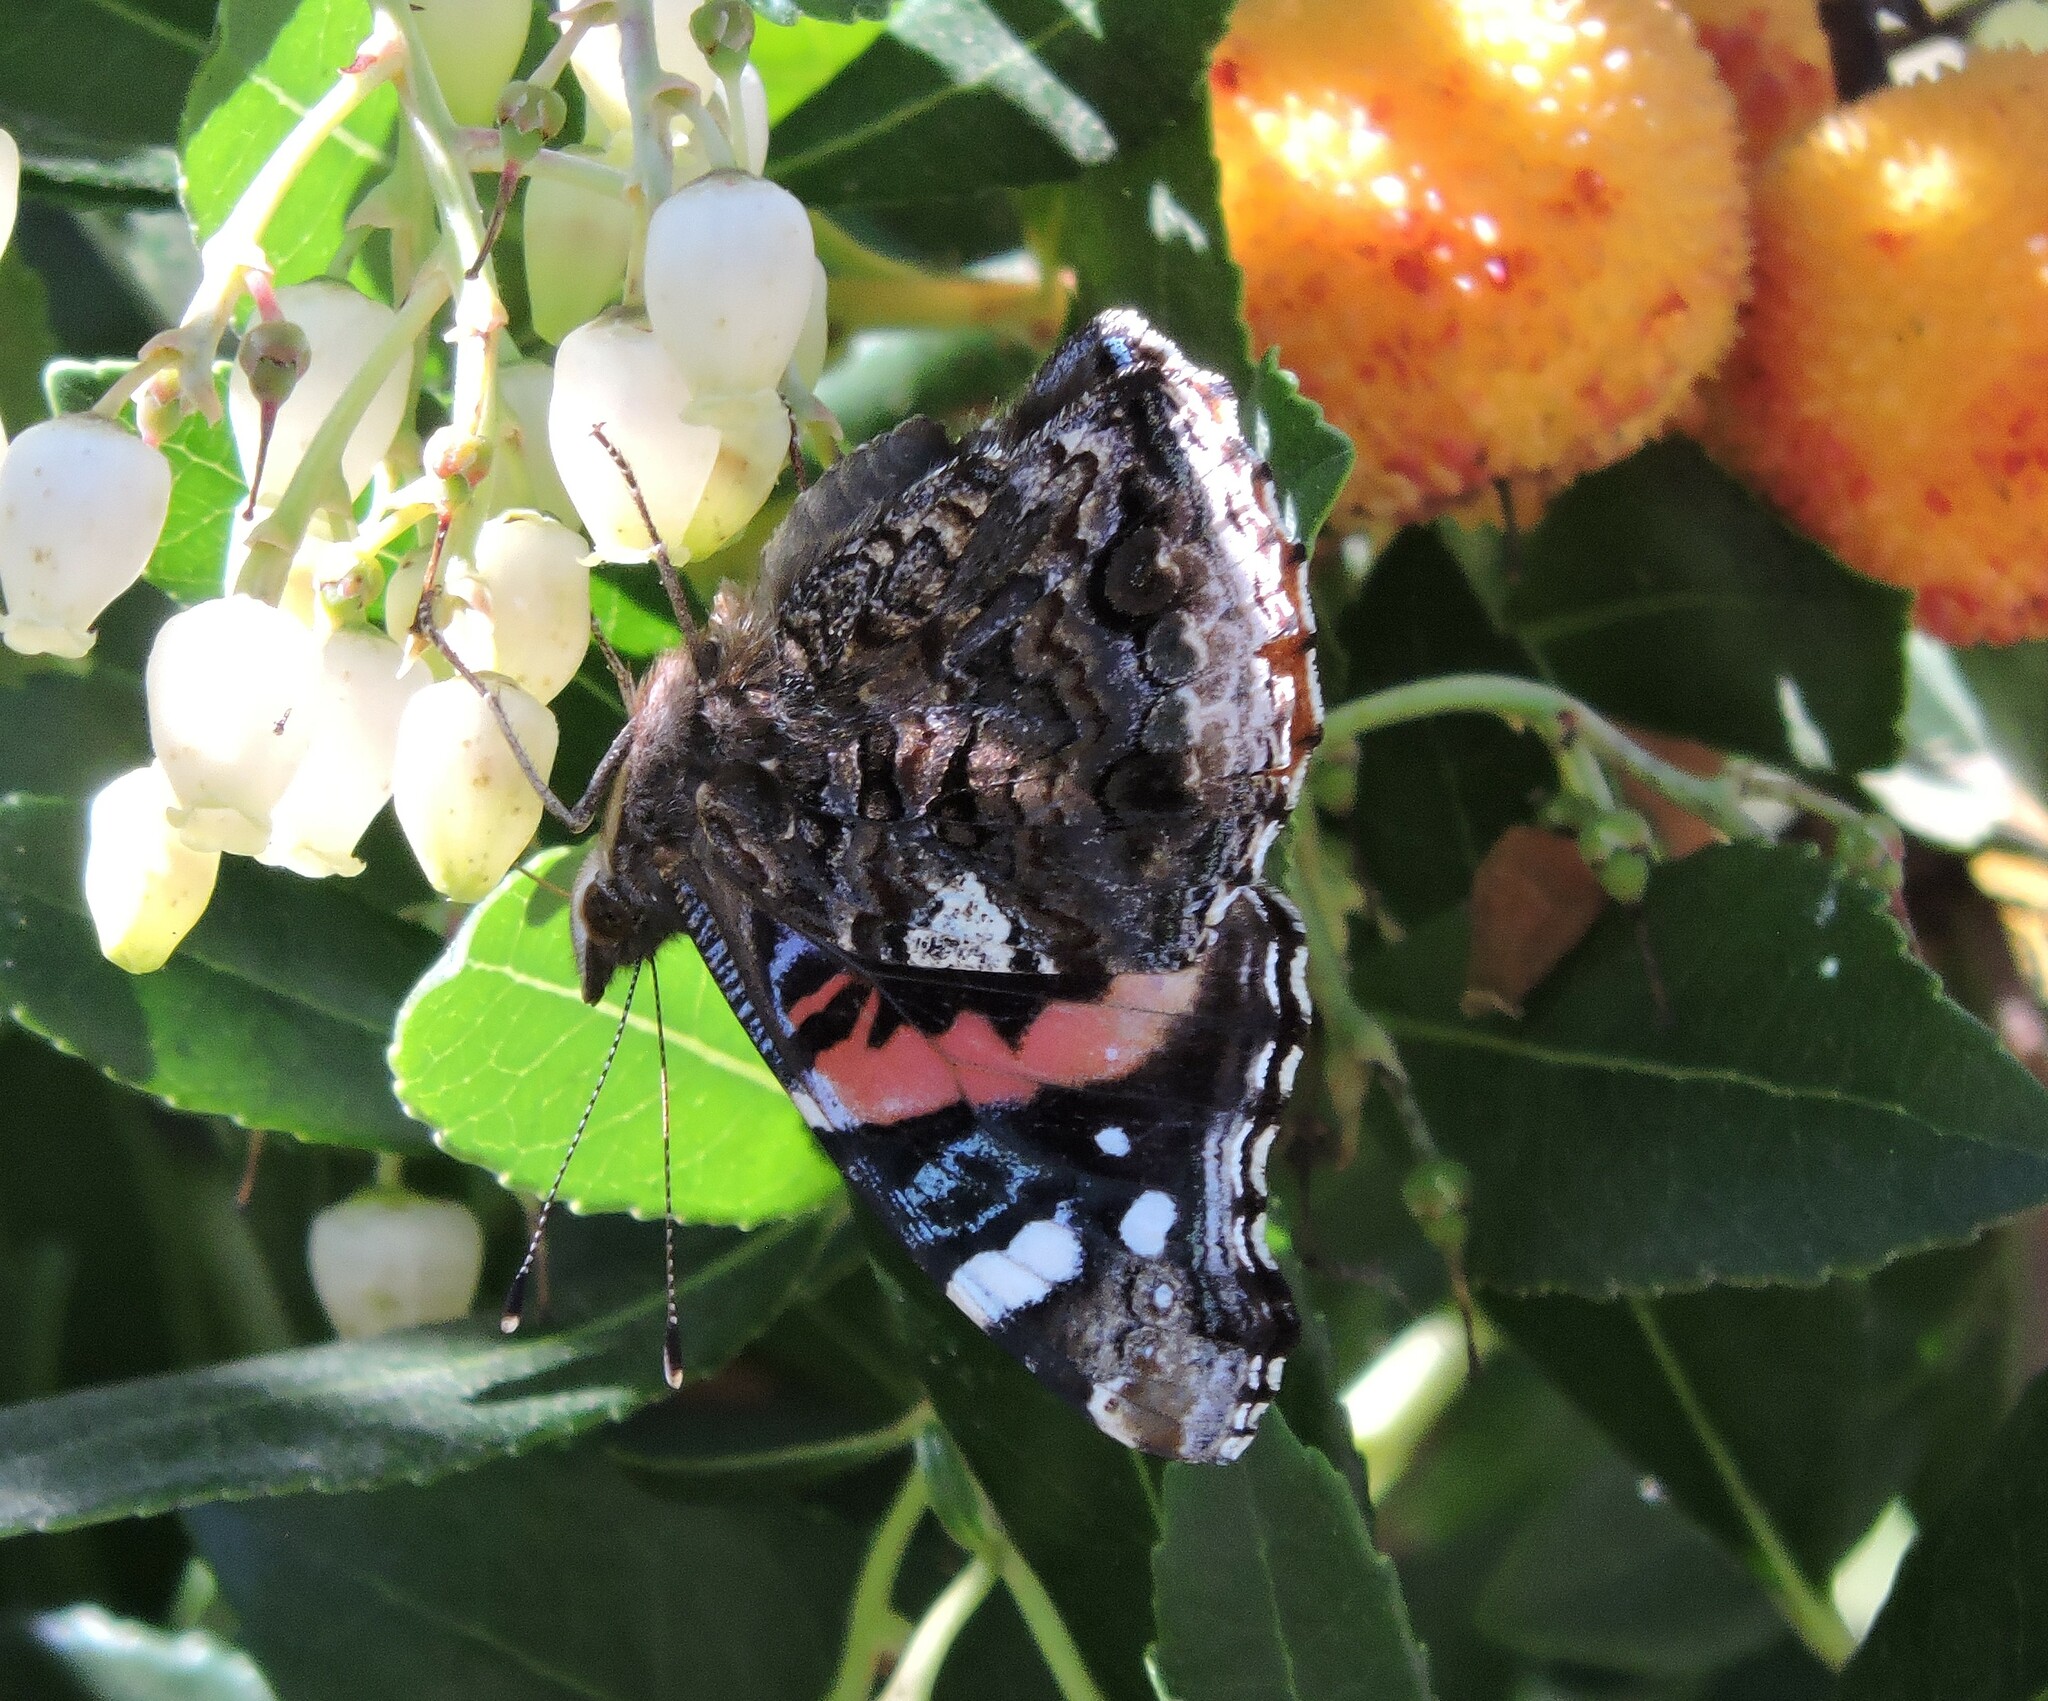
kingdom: Animalia
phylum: Arthropoda
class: Insecta
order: Lepidoptera
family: Nymphalidae
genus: Vanessa
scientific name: Vanessa atalanta
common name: Red admiral
